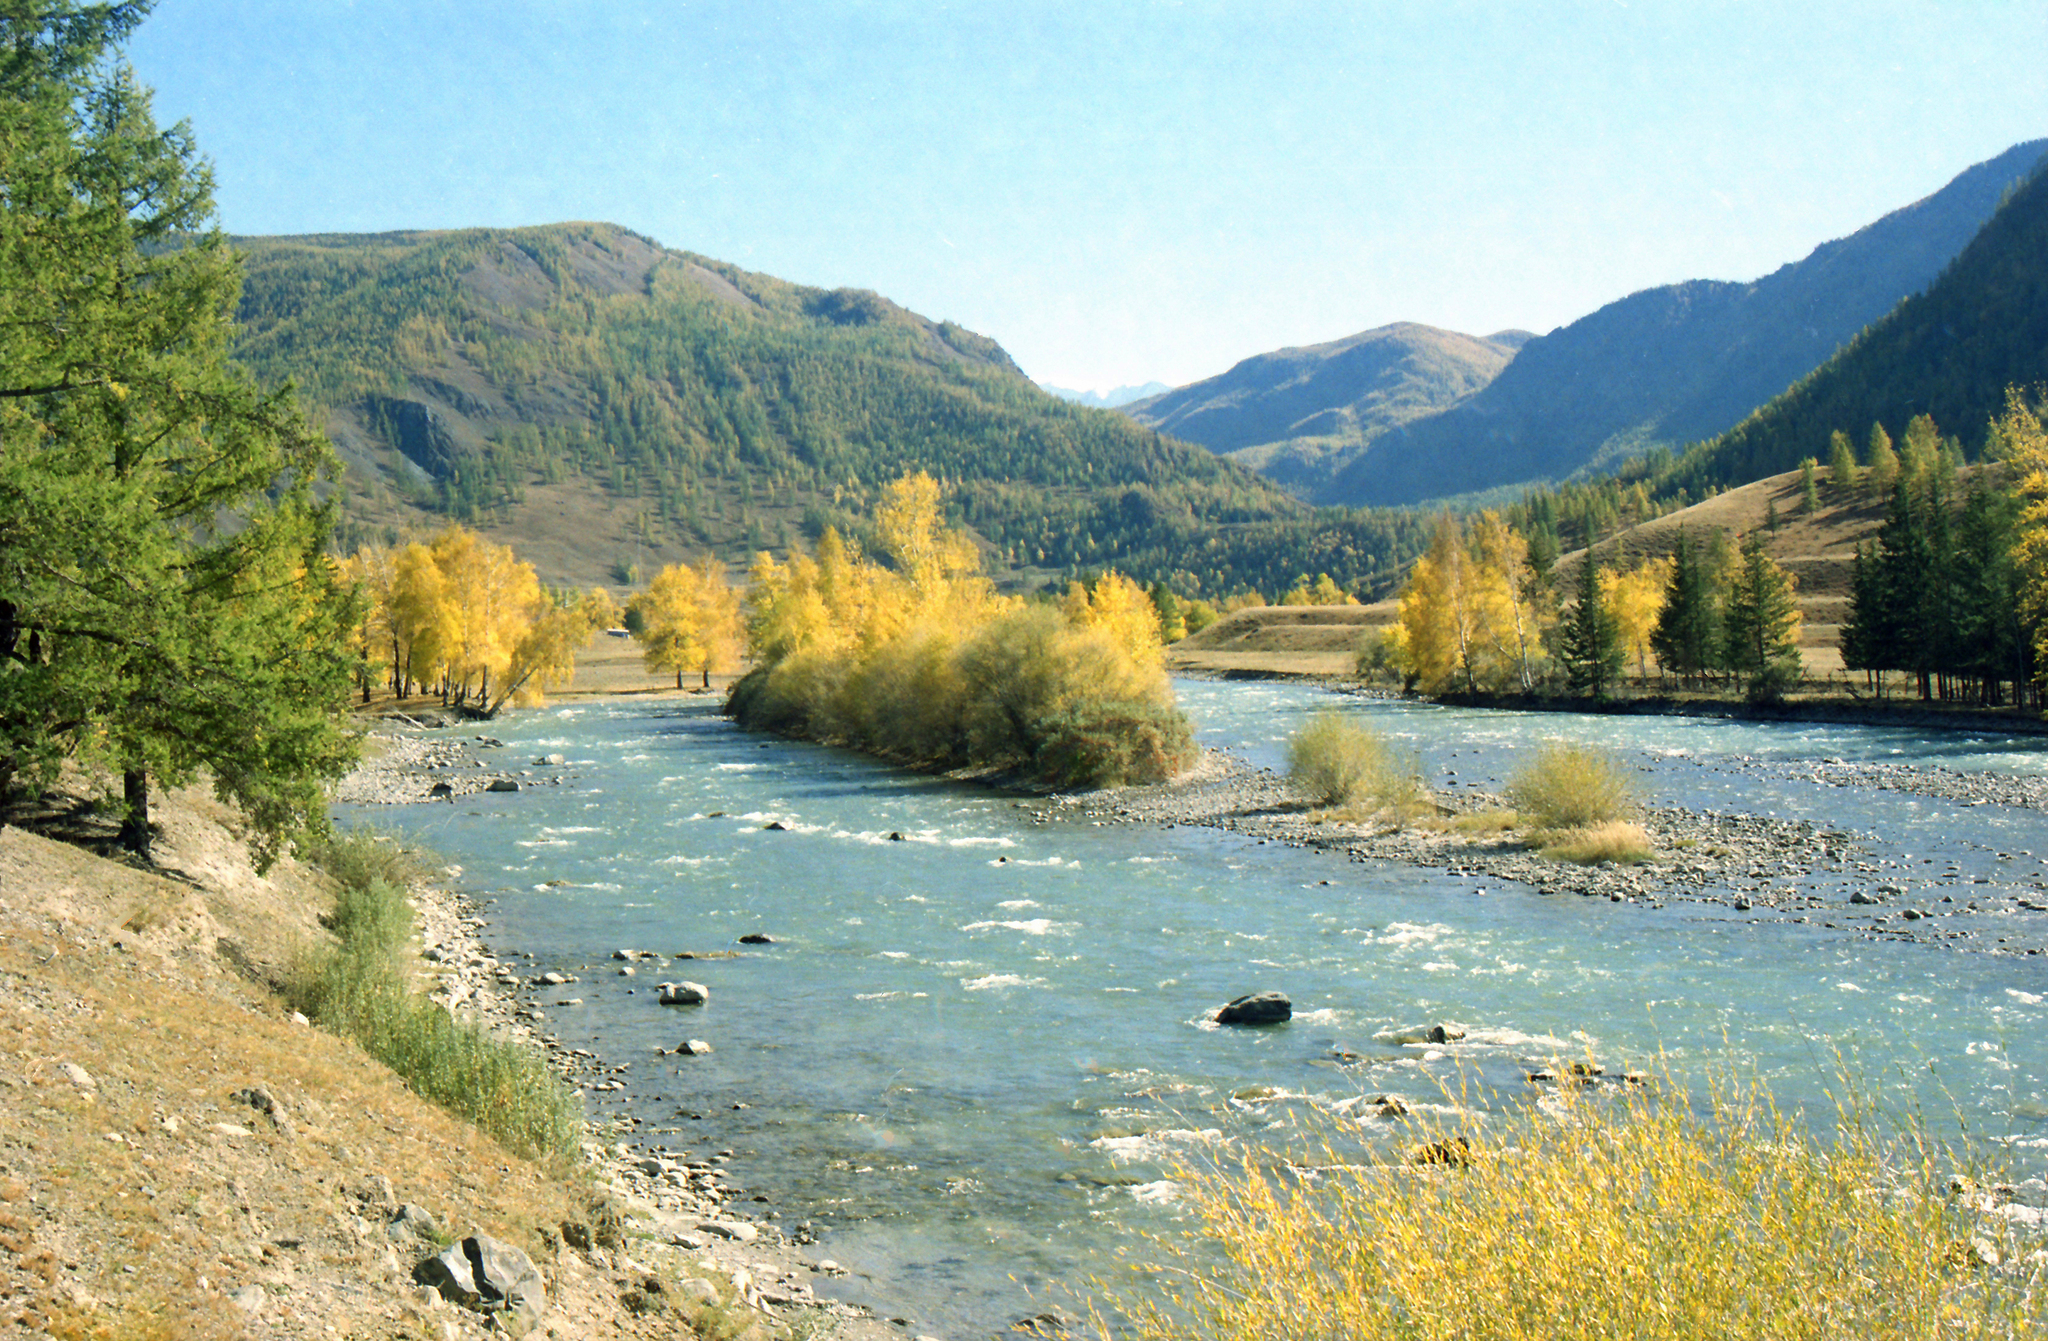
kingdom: Plantae
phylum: Tracheophyta
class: Pinopsida
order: Pinales
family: Pinaceae
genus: Larix
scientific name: Larix sibirica
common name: Siberian larch
